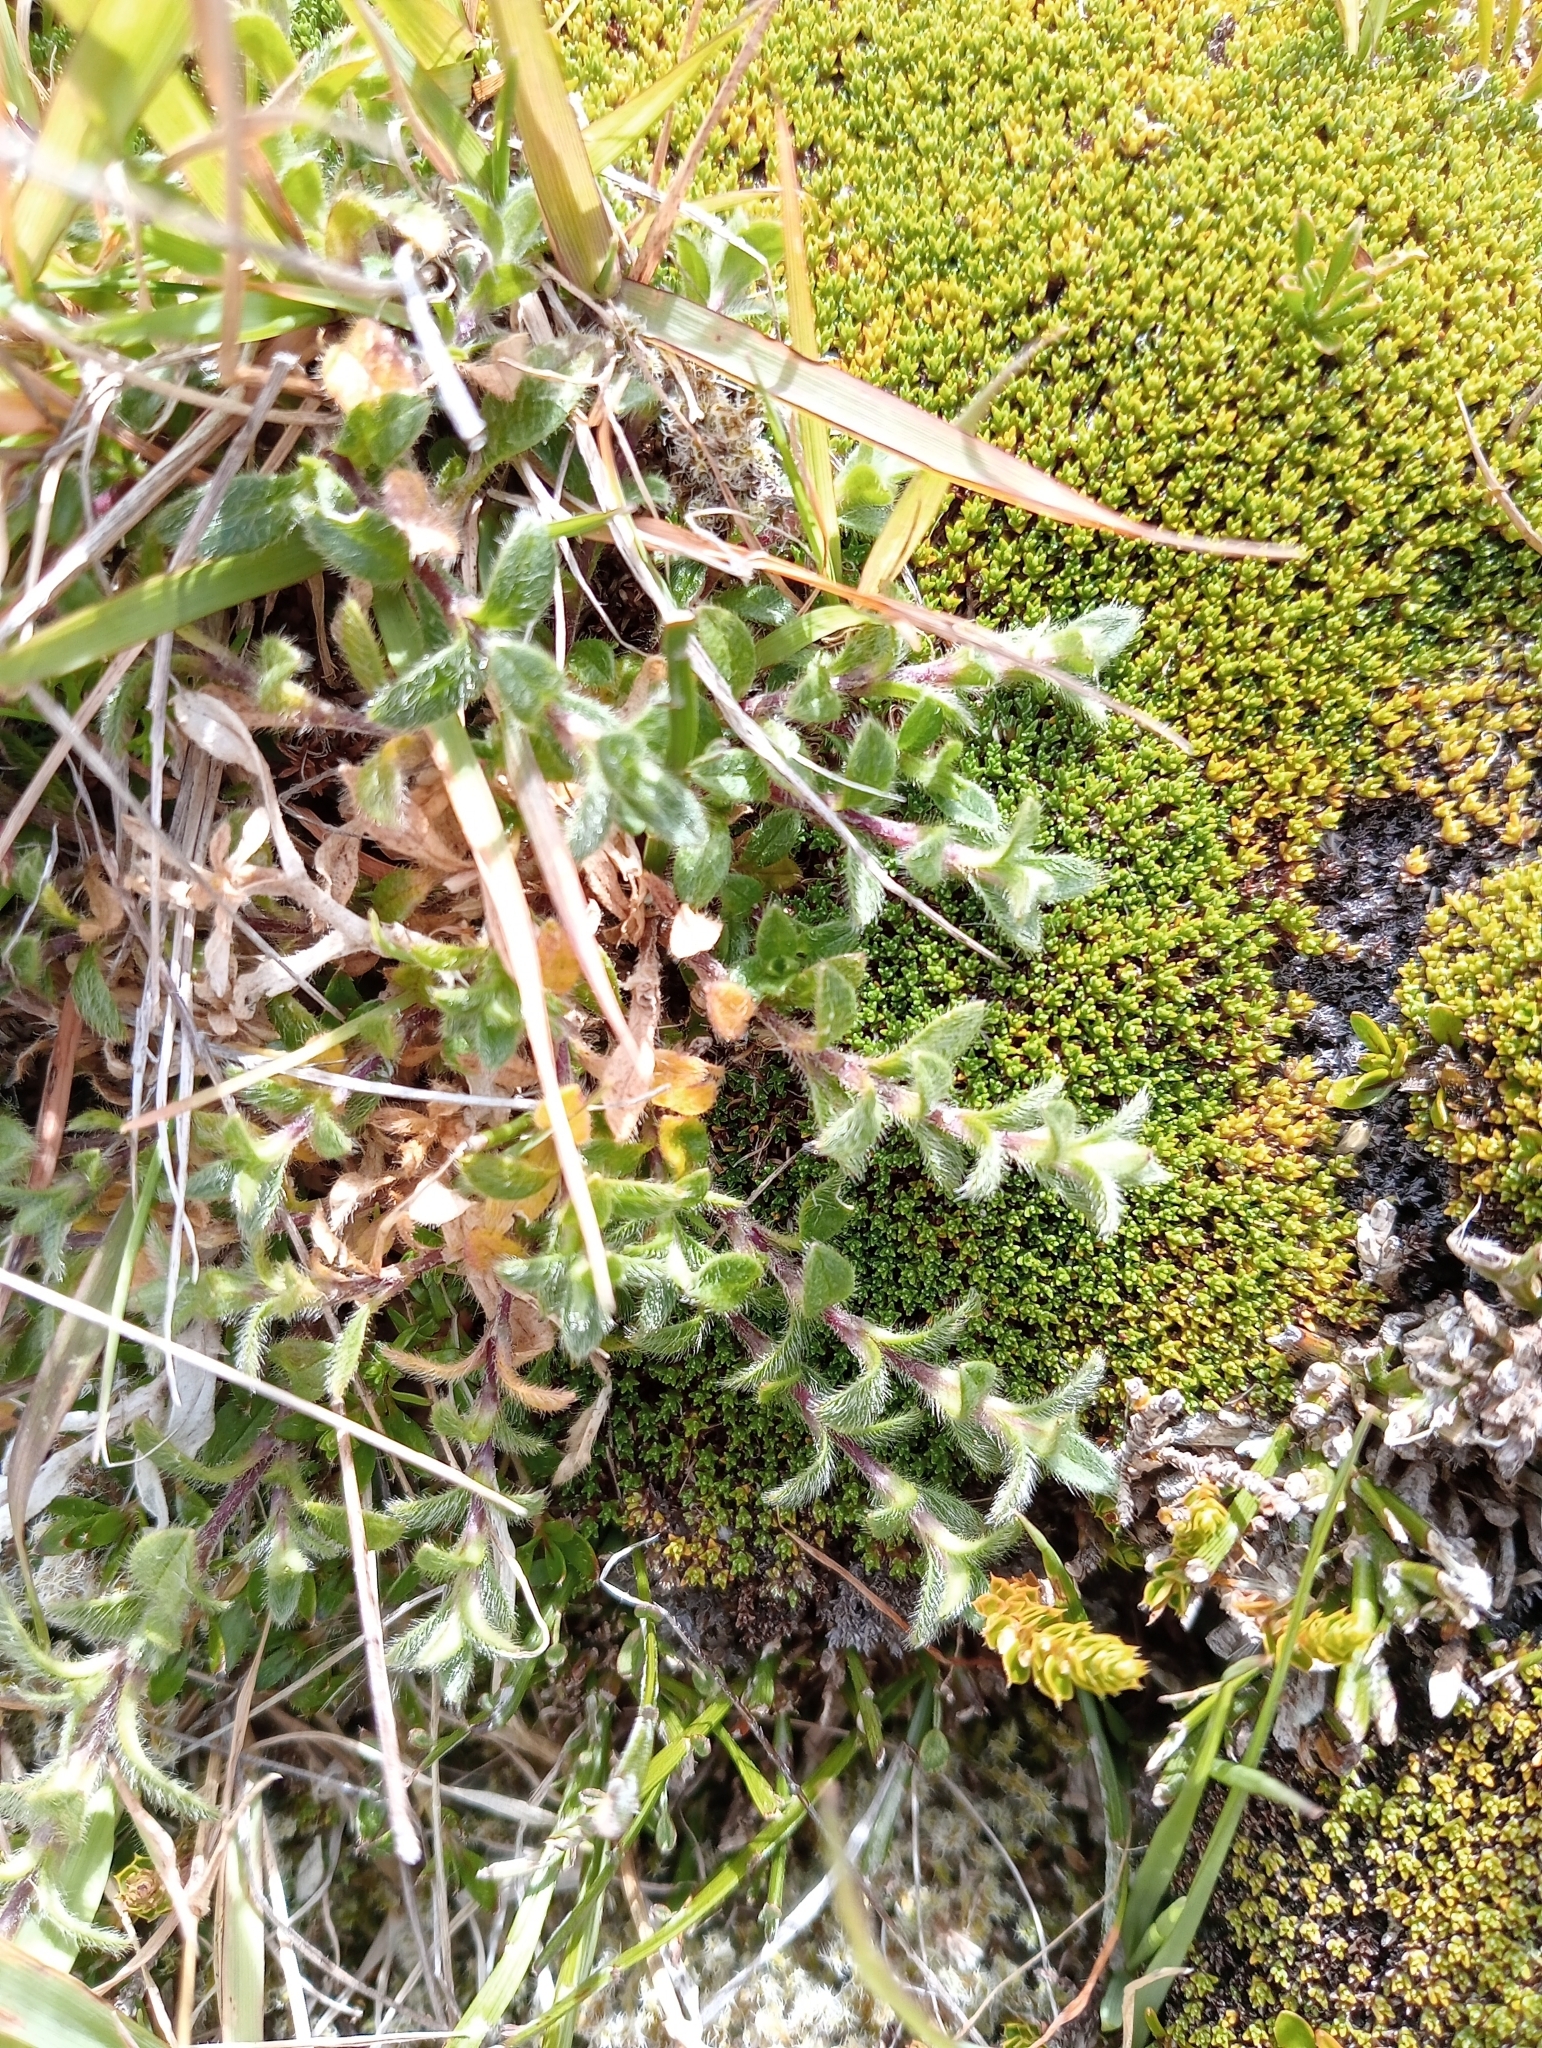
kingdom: Plantae
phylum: Tracheophyta
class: Magnoliopsida
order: Caryophyllales
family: Caryophyllaceae
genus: Cerastium
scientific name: Cerastium fontanum
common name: Common mouse-ear
